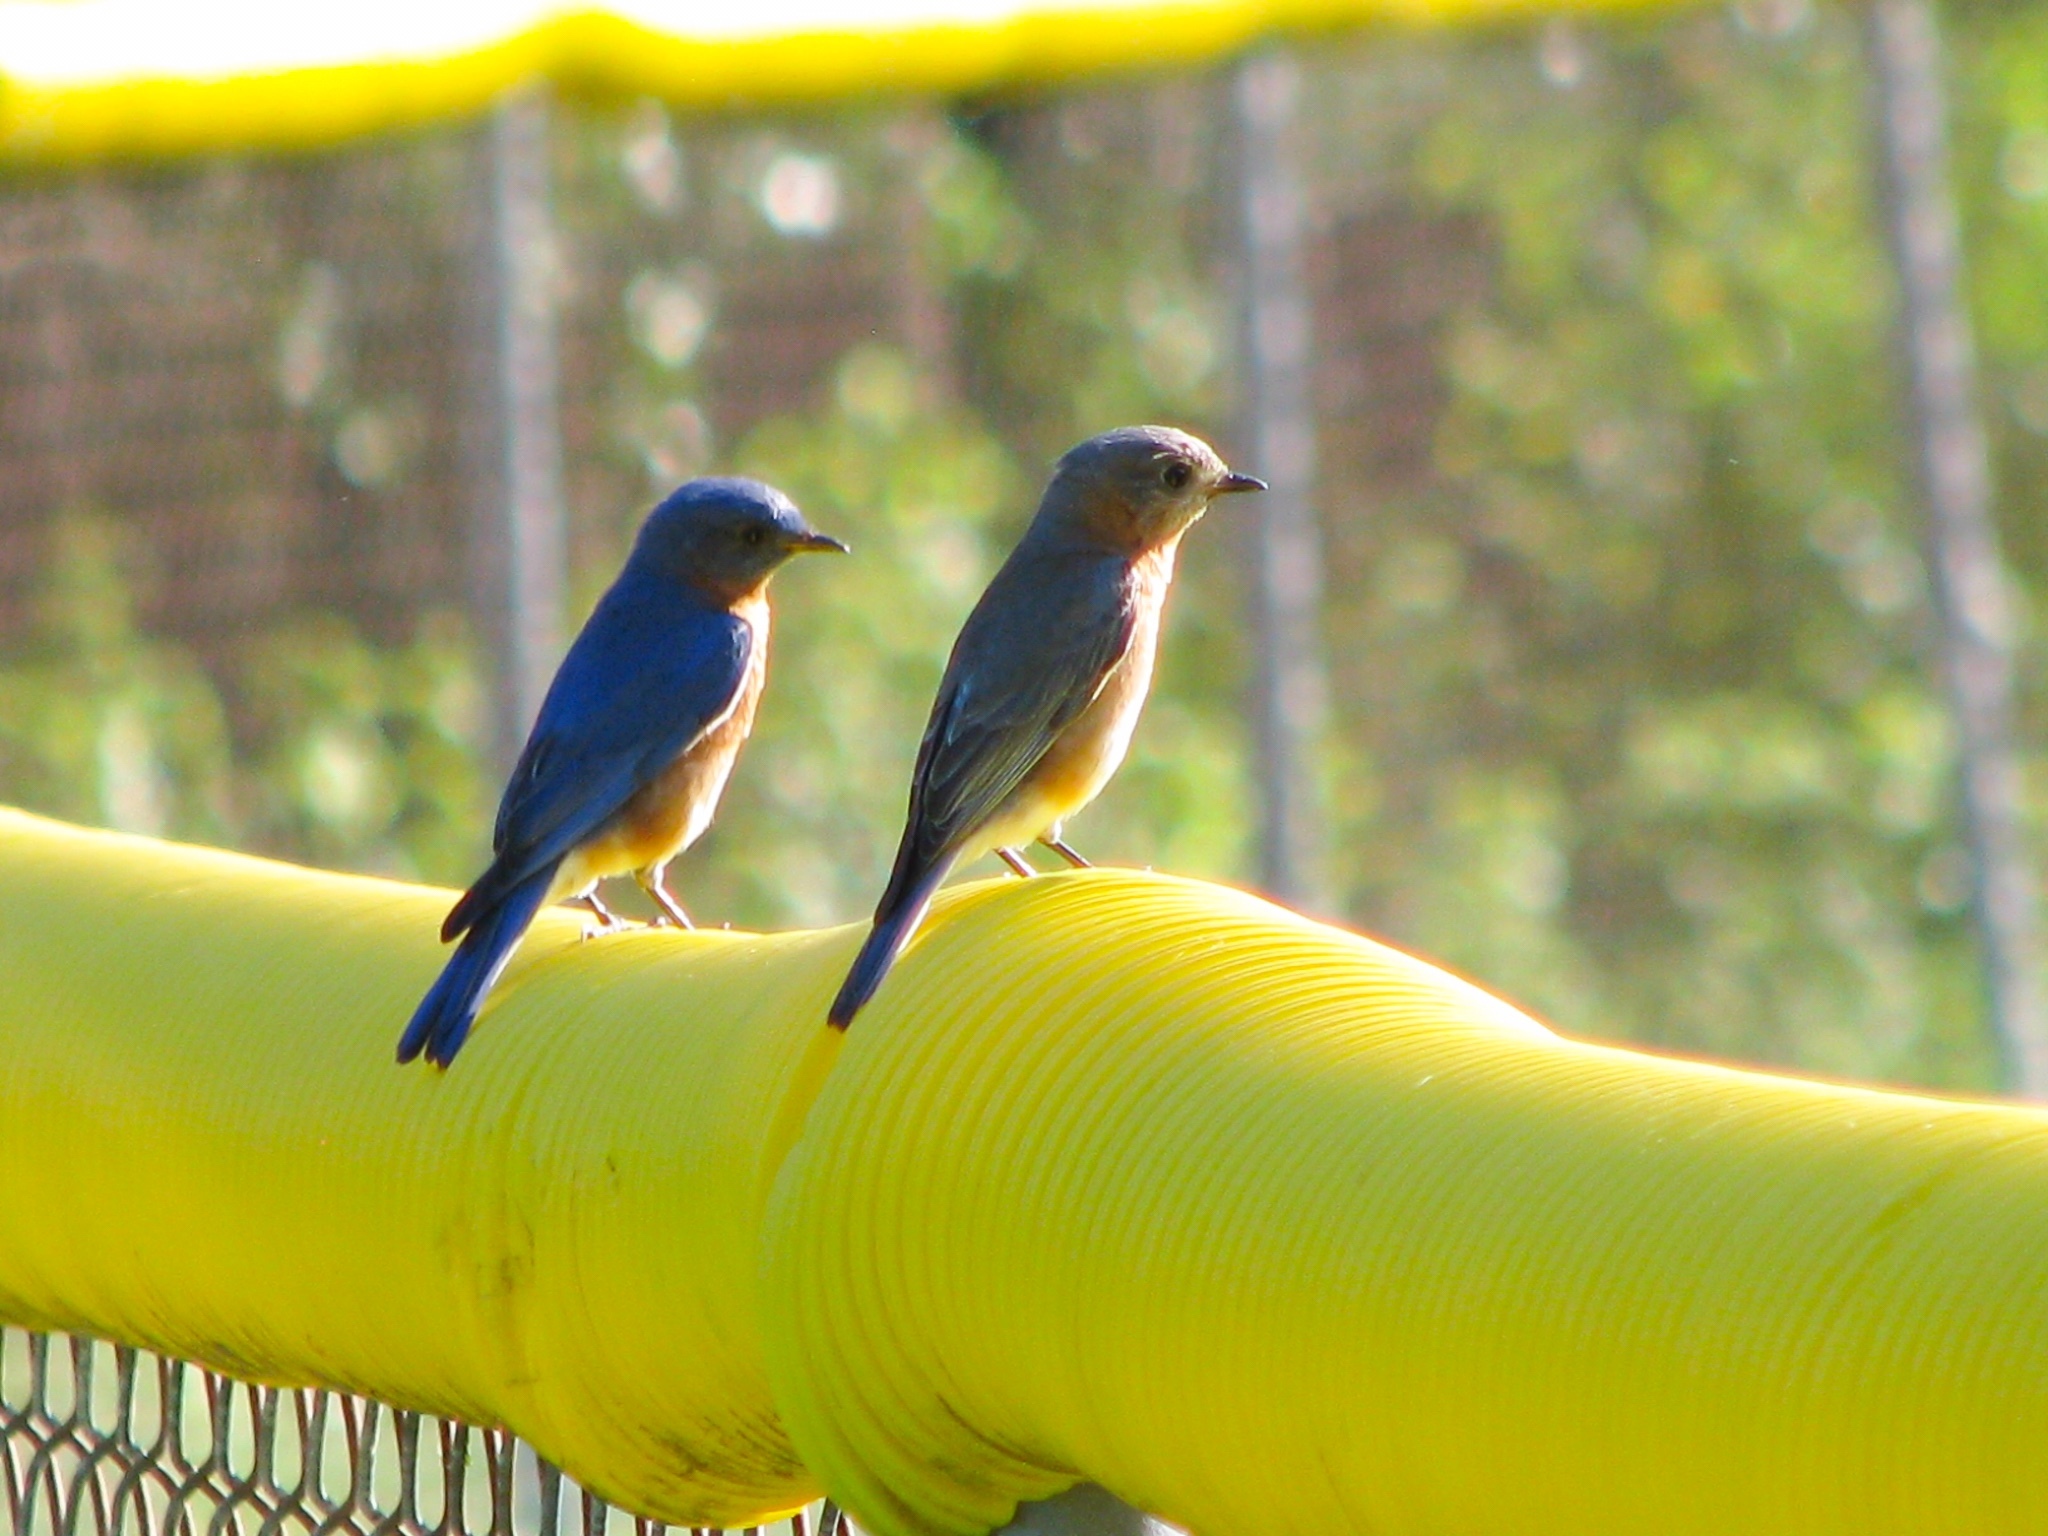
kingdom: Animalia
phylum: Chordata
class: Aves
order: Passeriformes
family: Turdidae
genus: Sialia
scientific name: Sialia sialis
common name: Eastern bluebird
